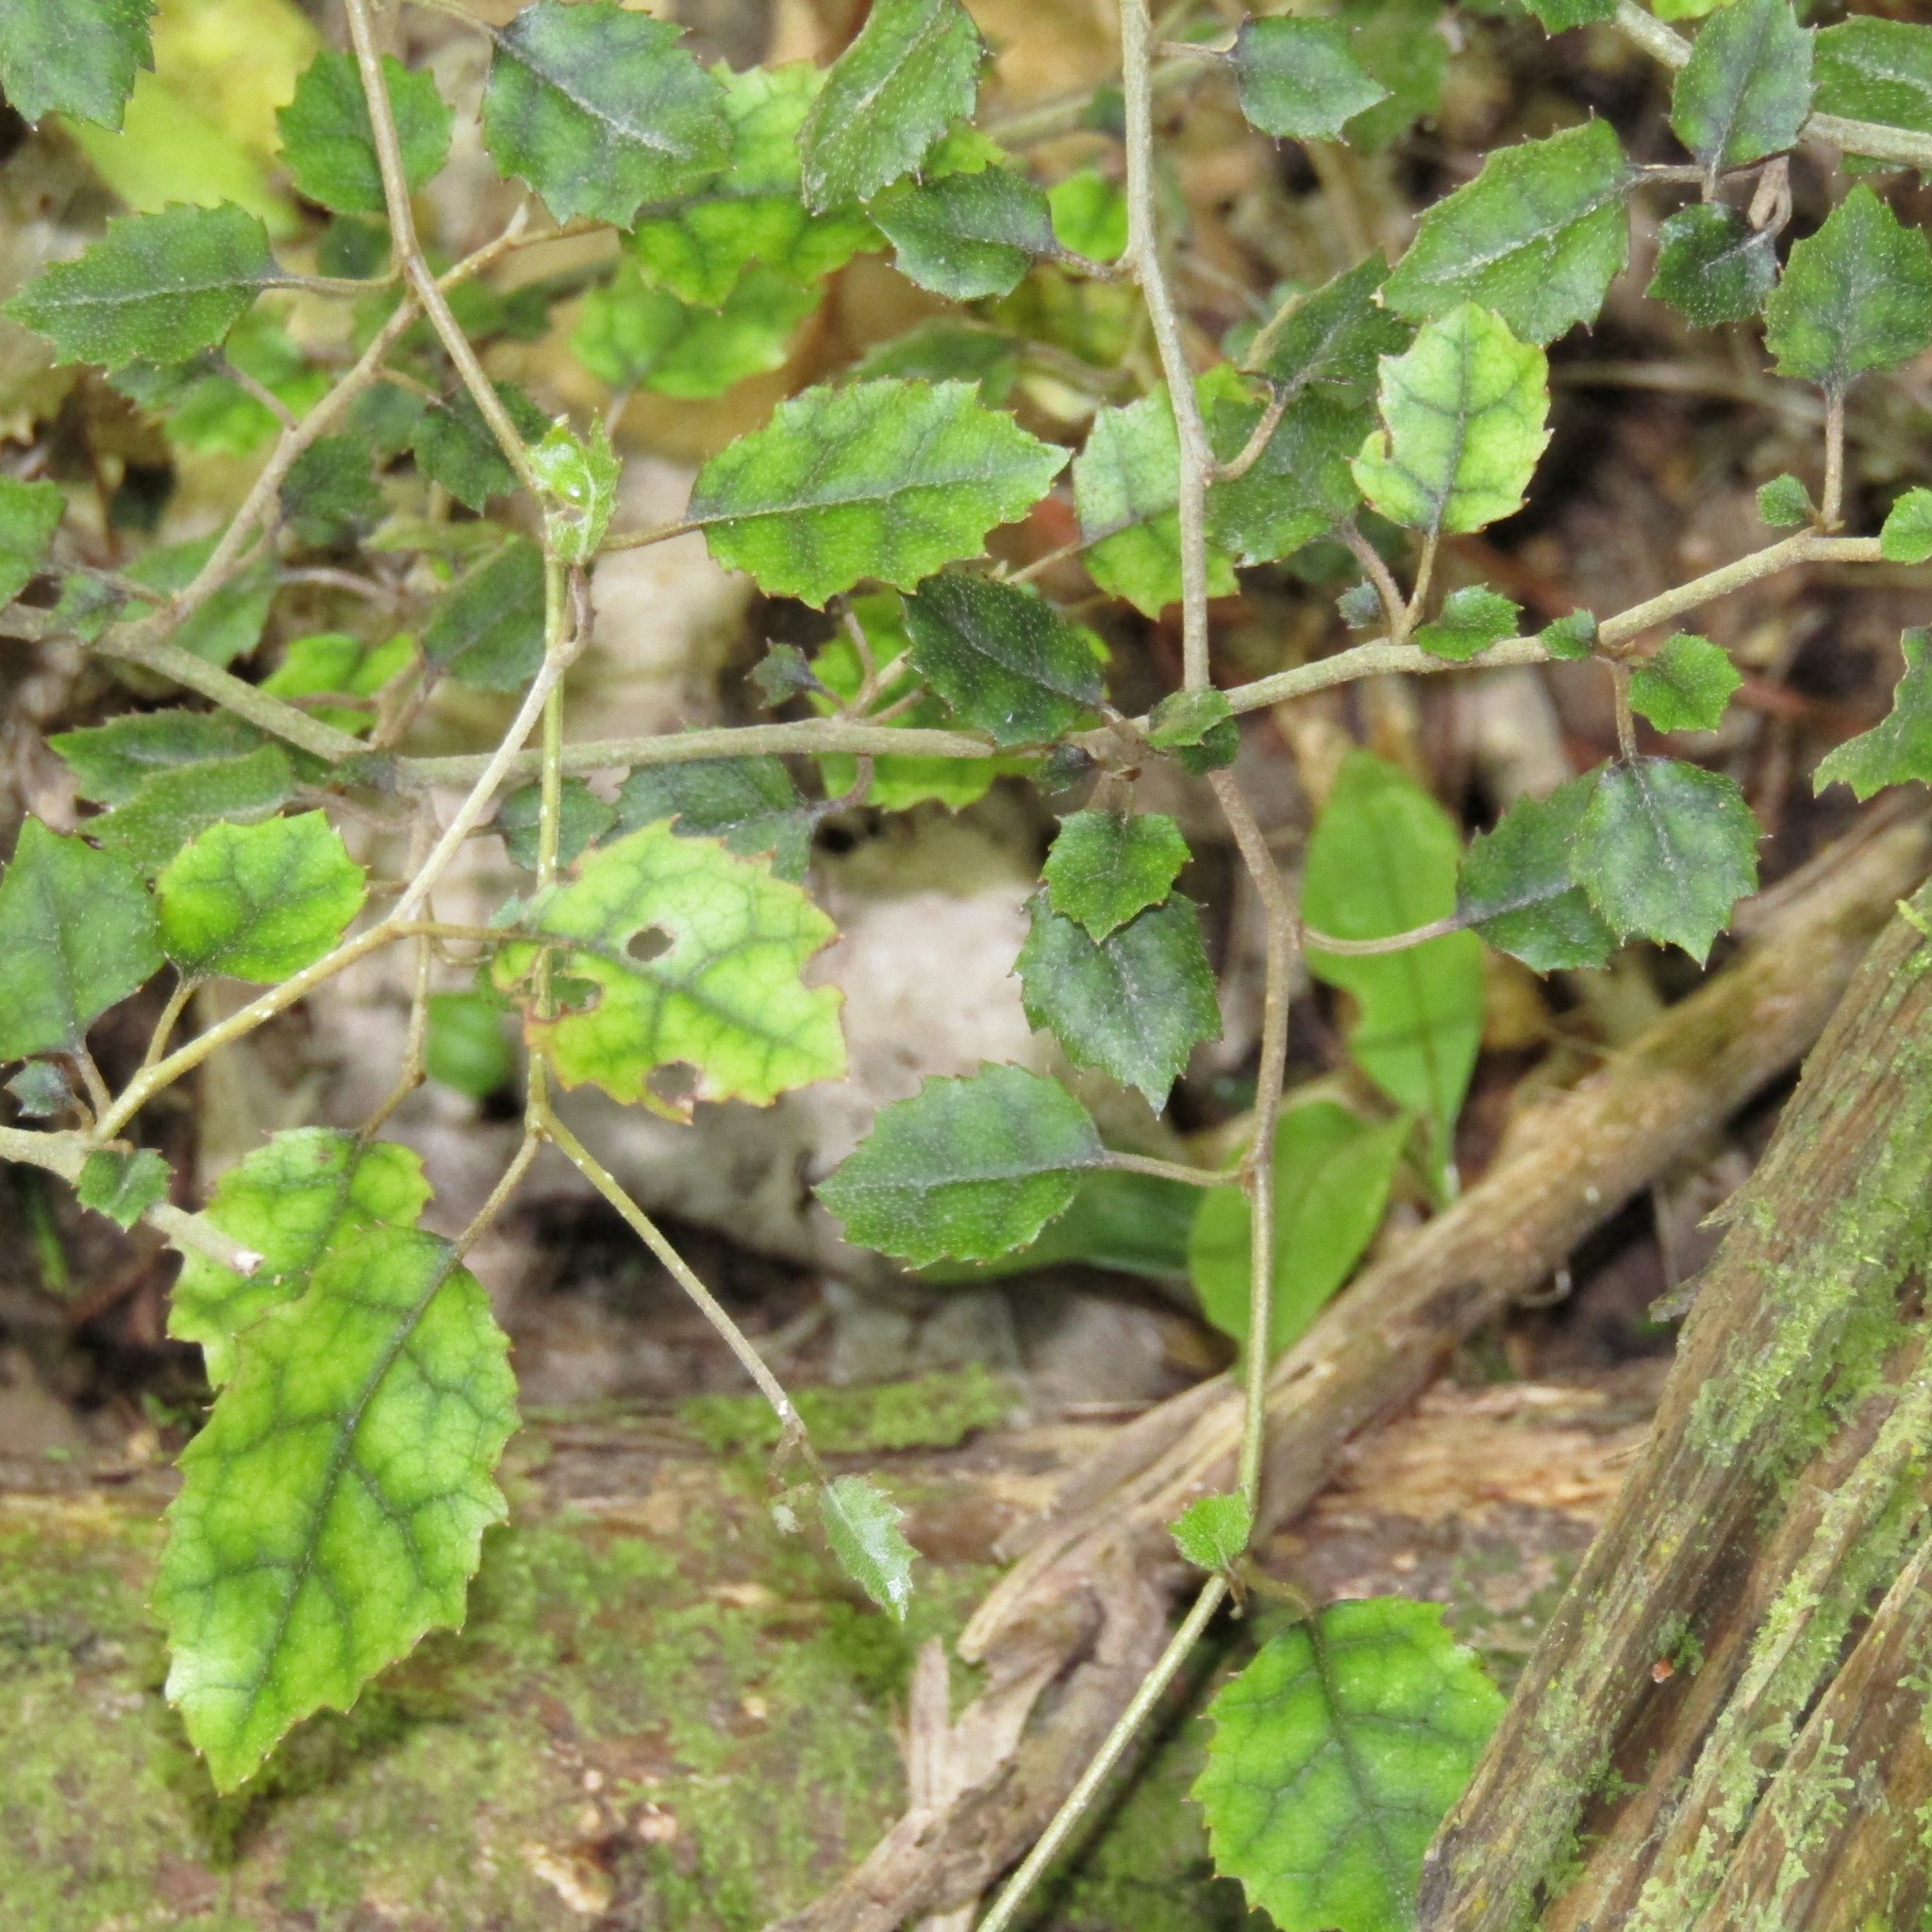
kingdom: Plantae
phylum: Tracheophyta
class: Magnoliopsida
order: Asterales
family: Rousseaceae
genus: Carpodetus
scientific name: Carpodetus serratus
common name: White mapau
